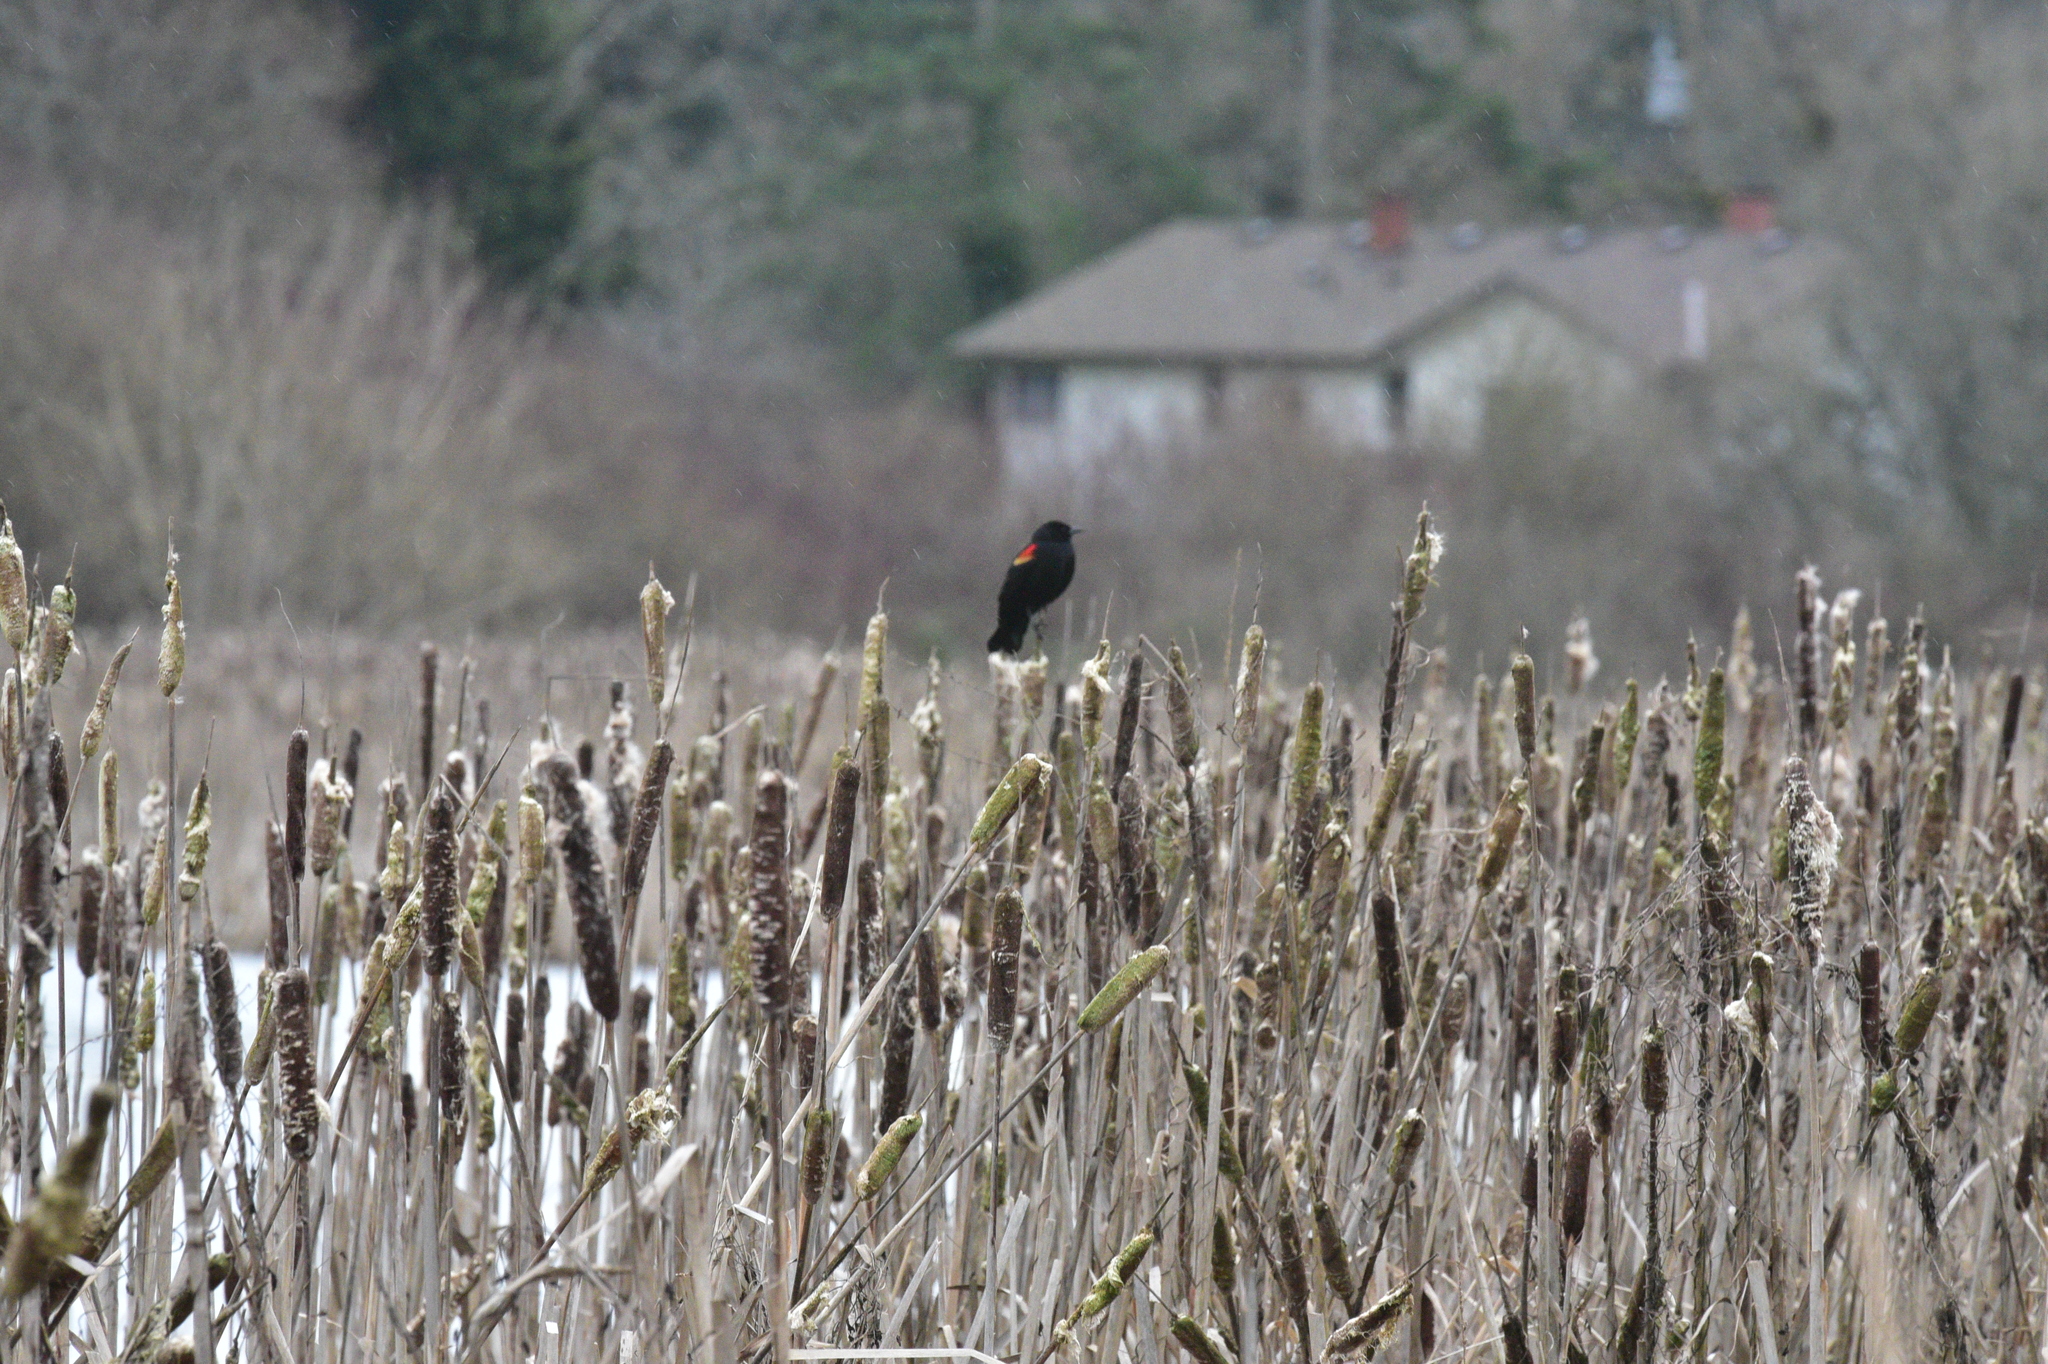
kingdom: Animalia
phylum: Chordata
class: Aves
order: Passeriformes
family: Icteridae
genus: Agelaius
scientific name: Agelaius phoeniceus
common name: Red-winged blackbird
